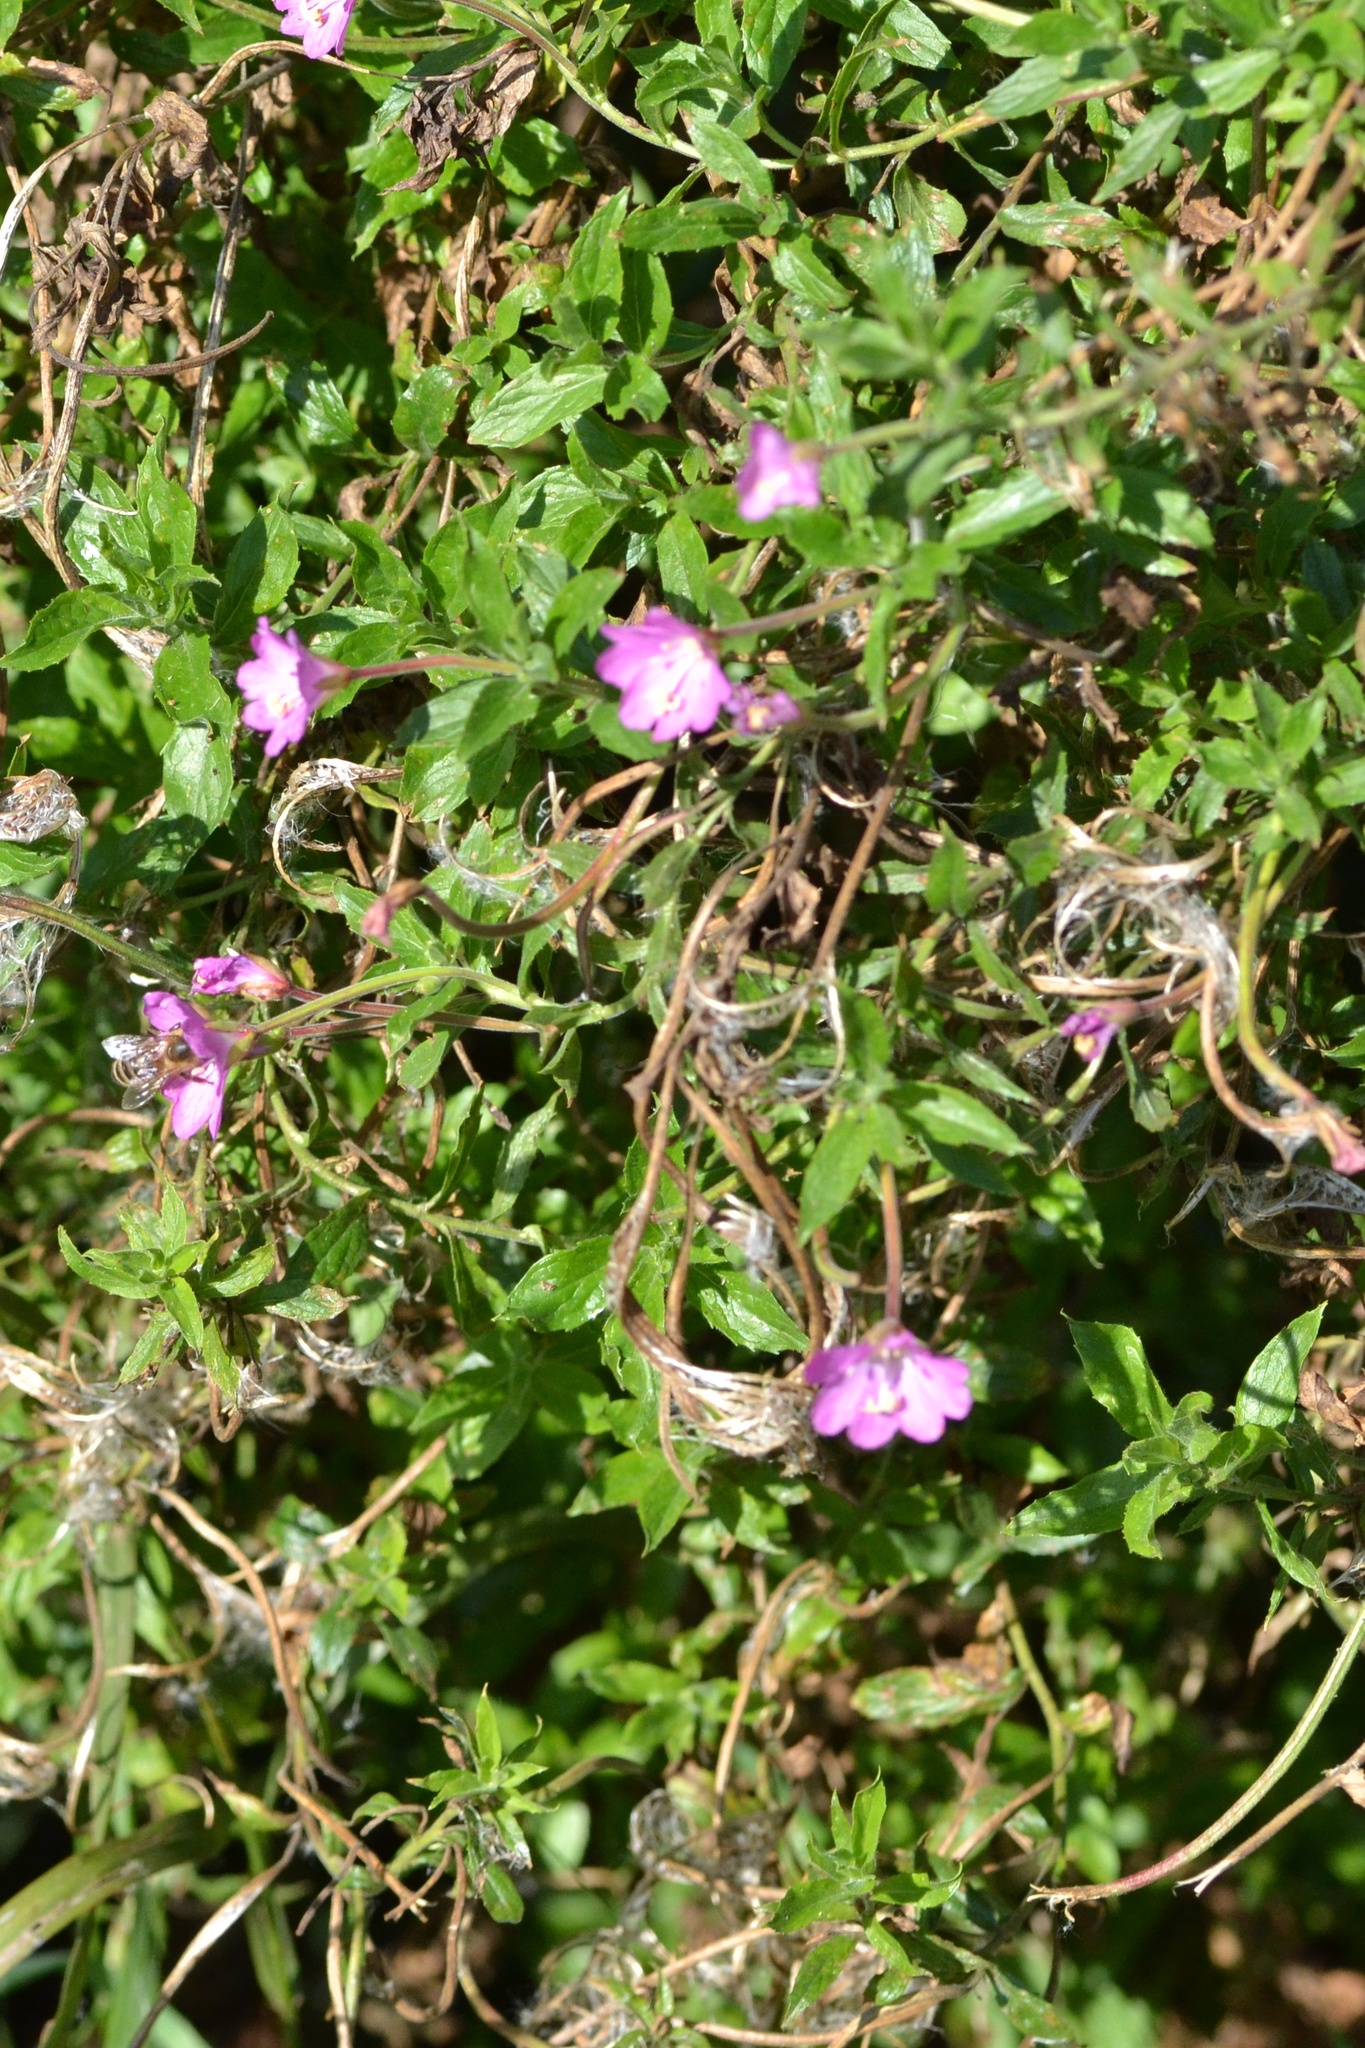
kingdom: Plantae
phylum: Tracheophyta
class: Magnoliopsida
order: Myrtales
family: Onagraceae
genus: Epilobium
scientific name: Epilobium hirsutum
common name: Great willowherb
